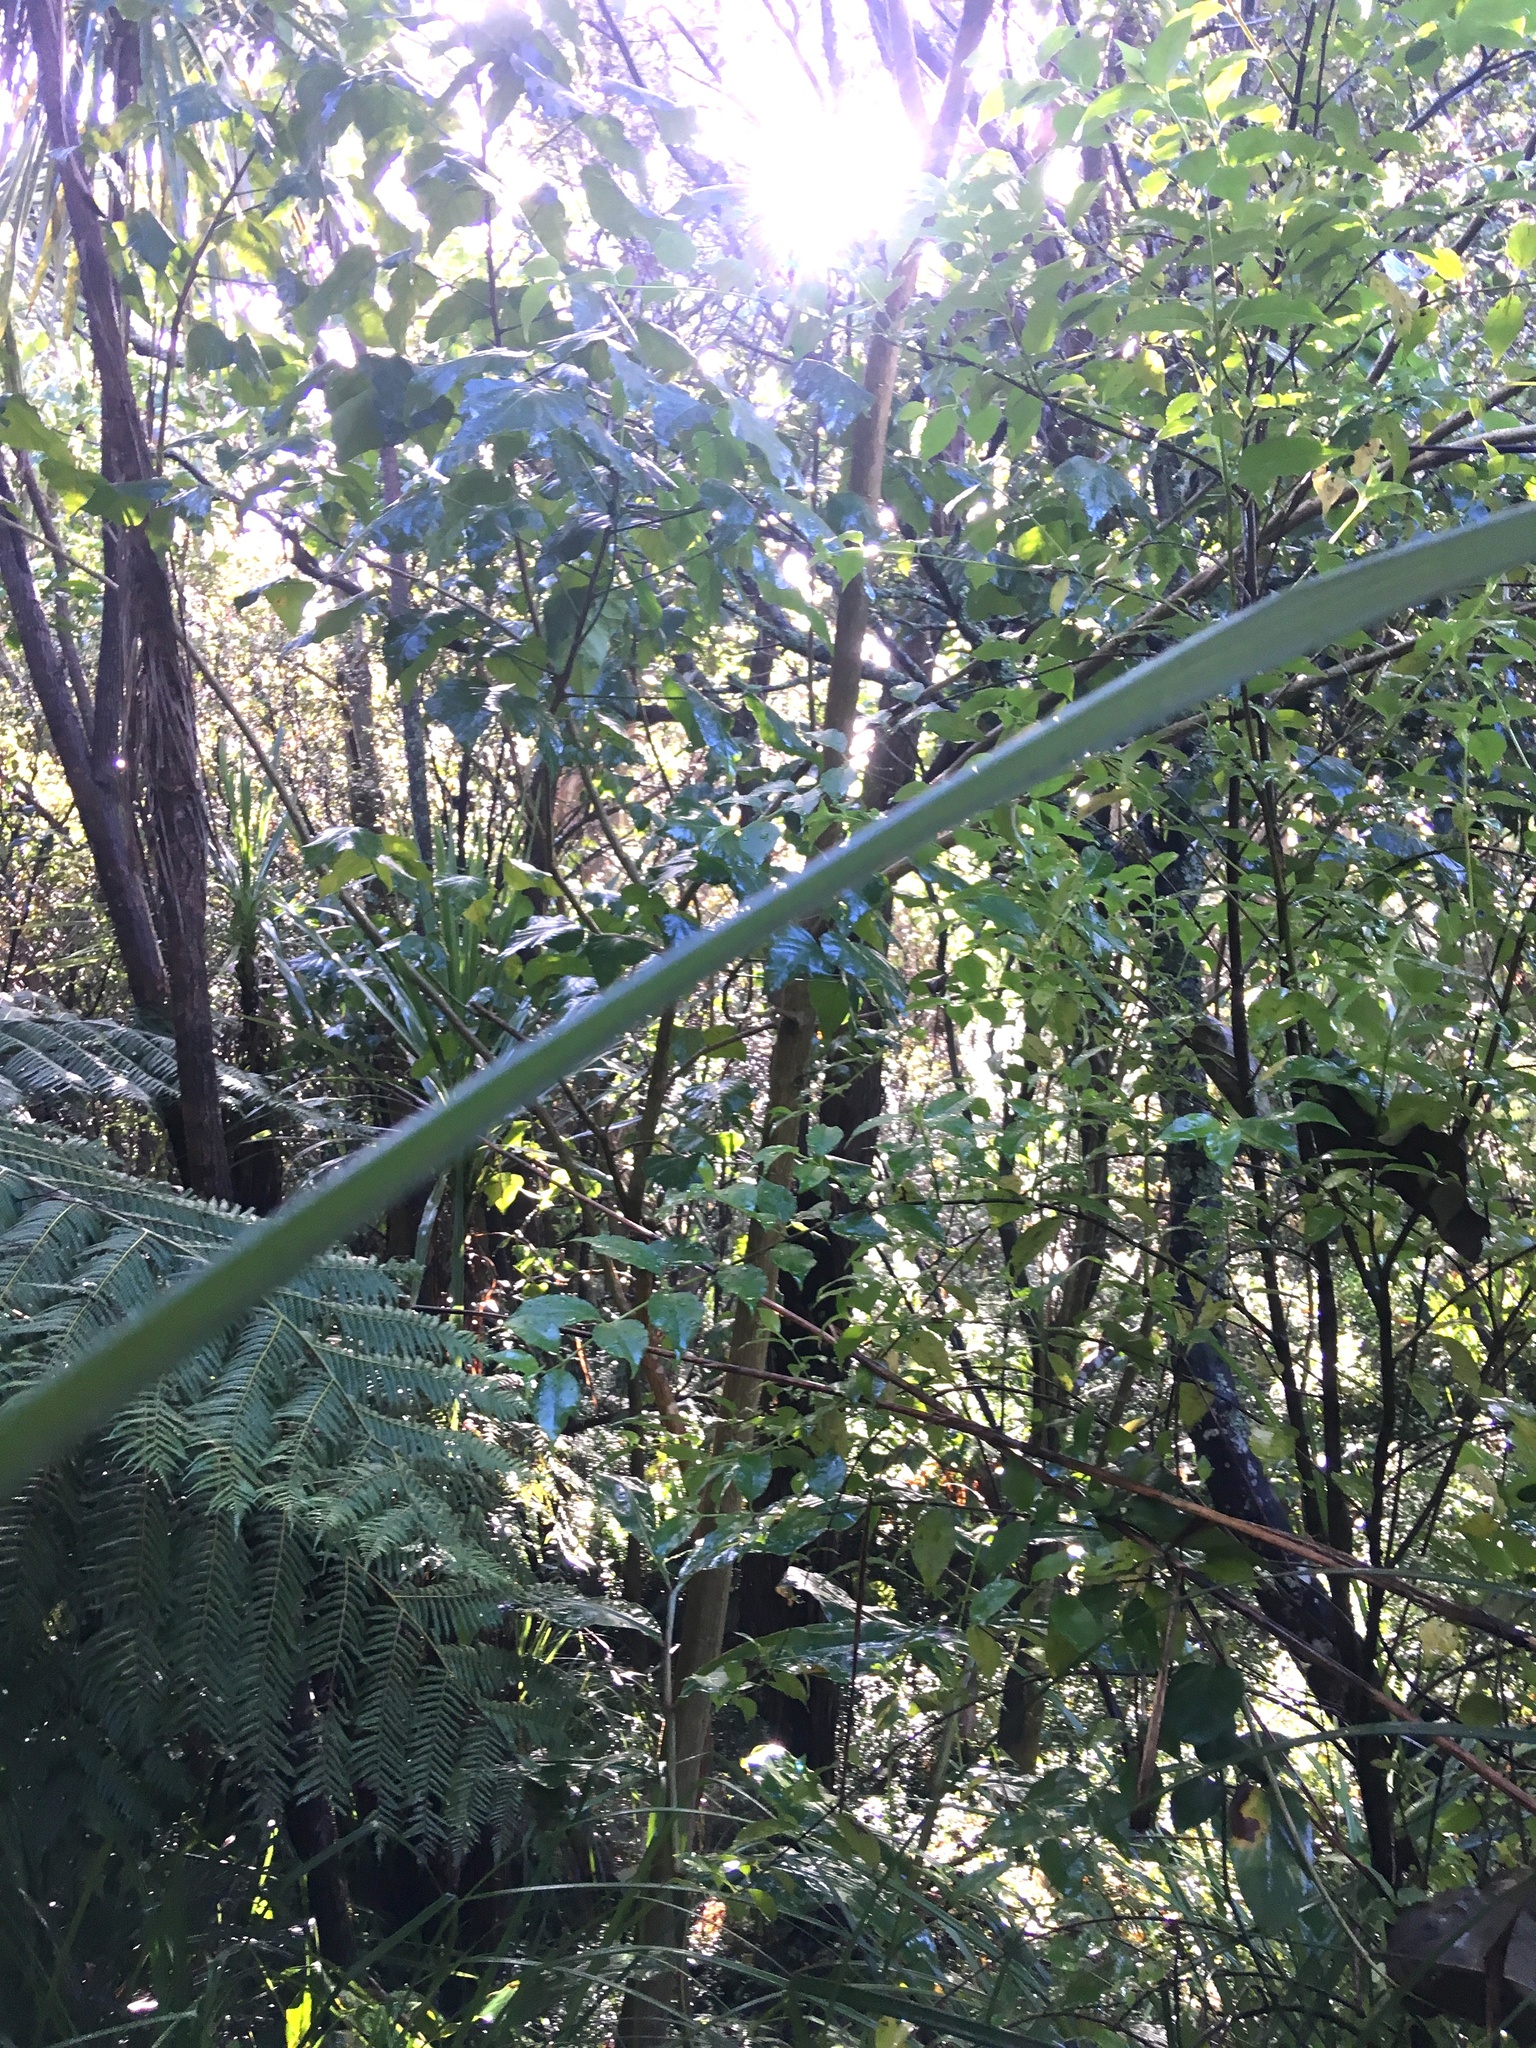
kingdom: Plantae
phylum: Tracheophyta
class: Magnoliopsida
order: Fabales
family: Fabaceae
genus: Erythrina
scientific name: Erythrina sykesii
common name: Coraltree
